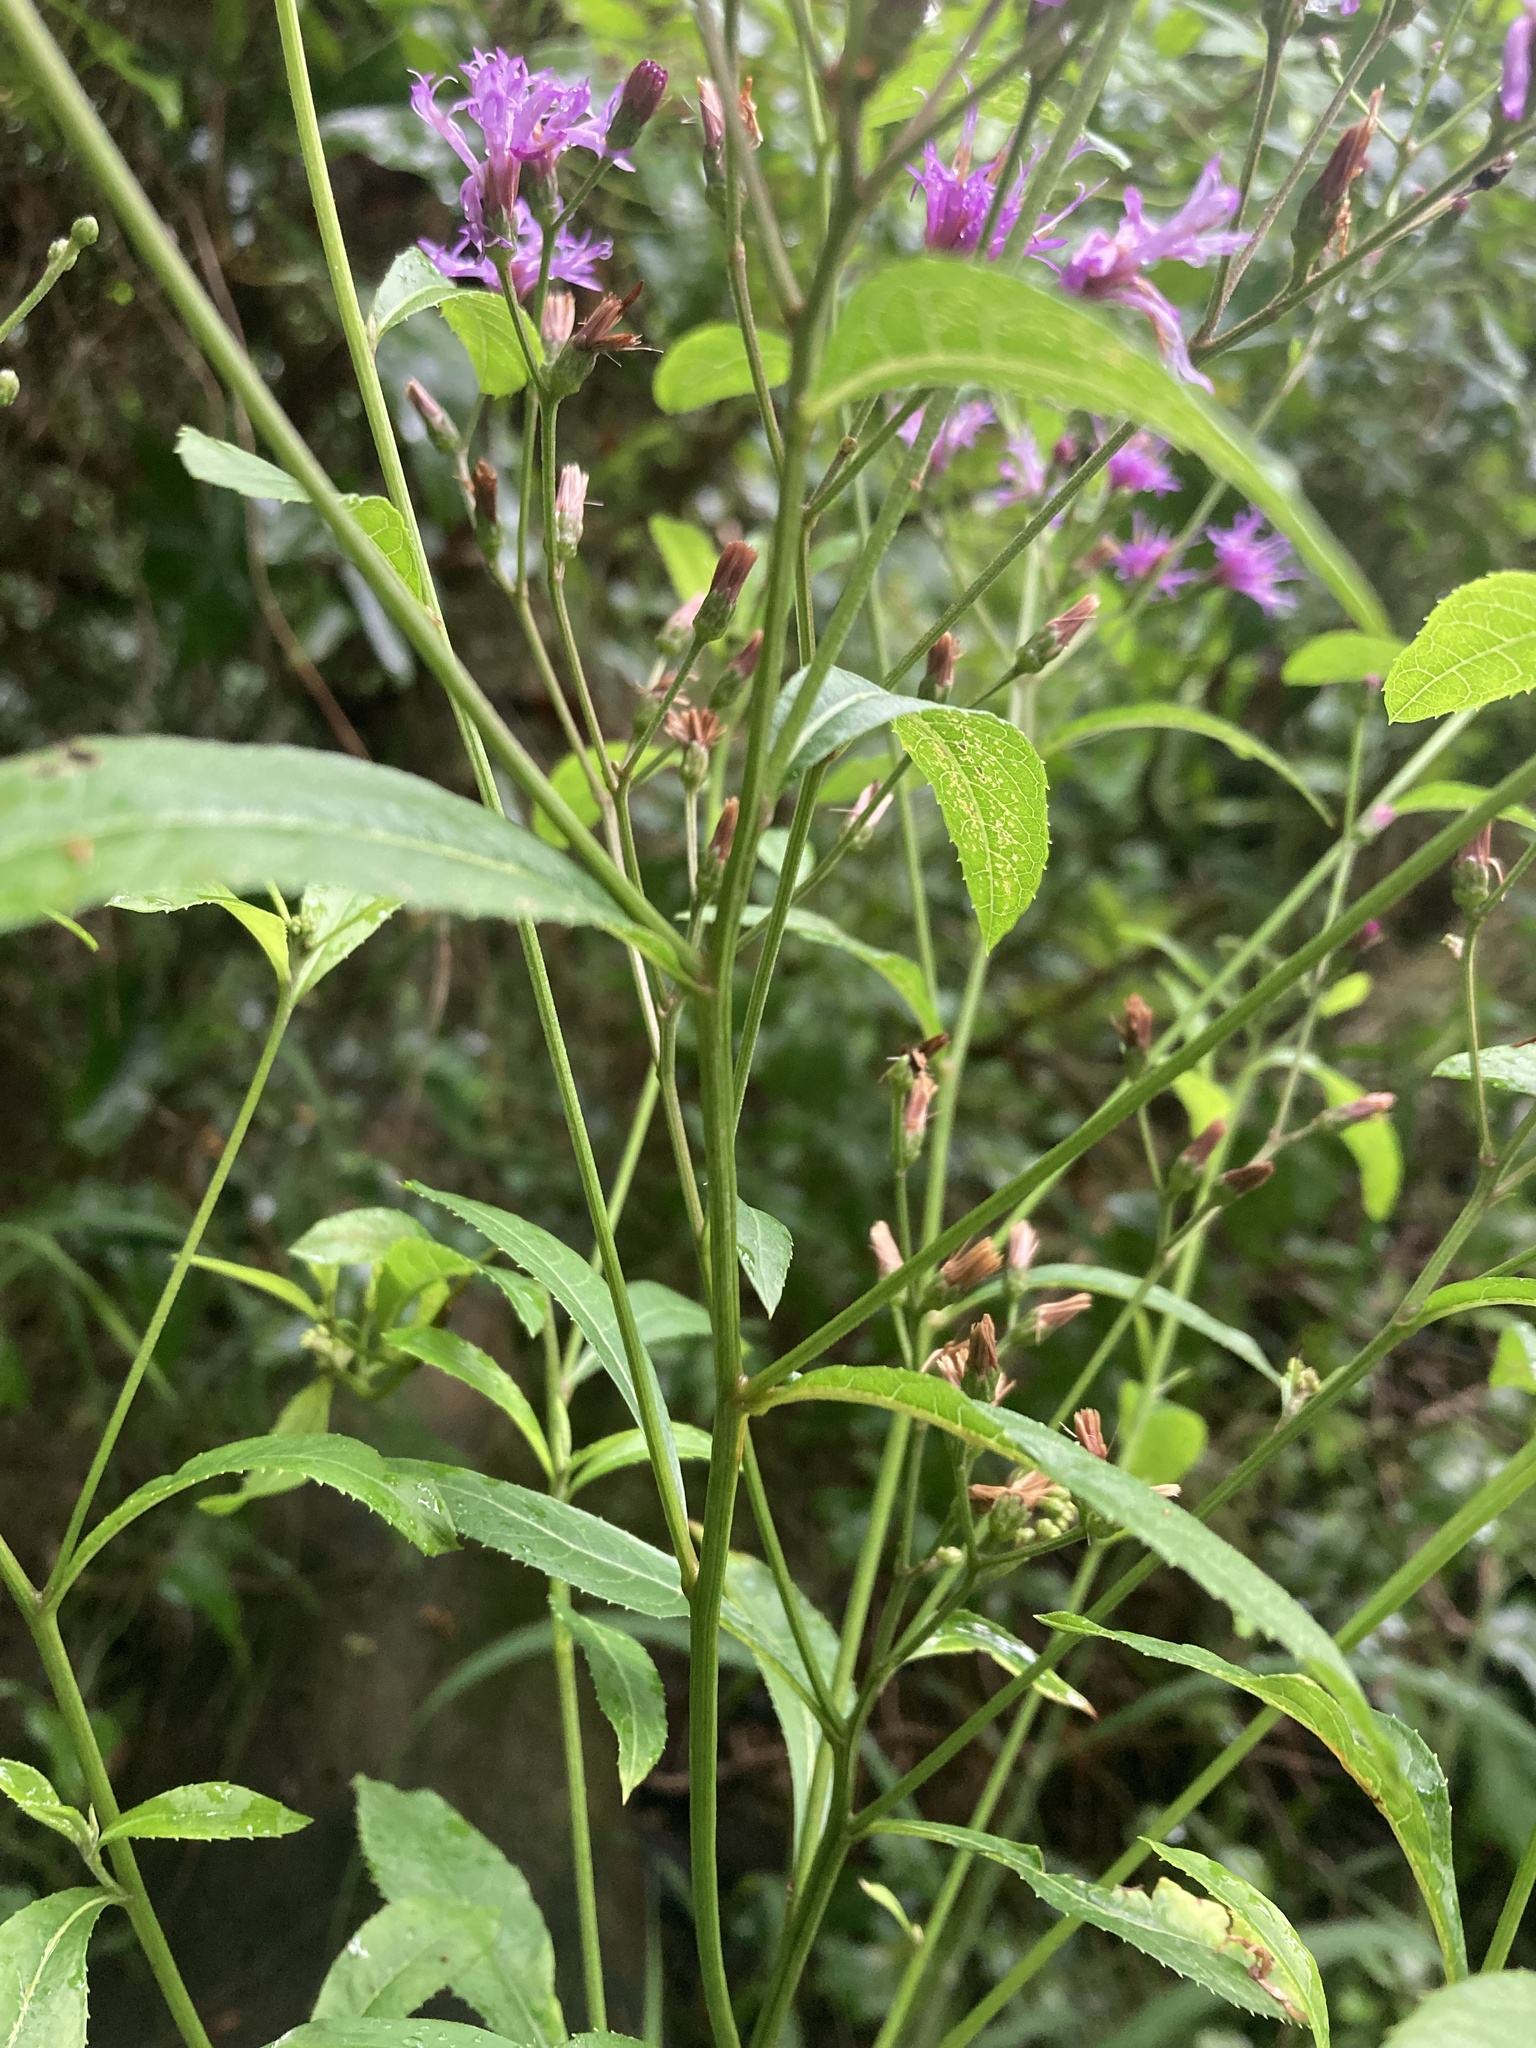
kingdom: Plantae
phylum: Tracheophyta
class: Magnoliopsida
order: Asterales
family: Asteraceae
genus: Vernonia
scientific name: Vernonia gigantea
